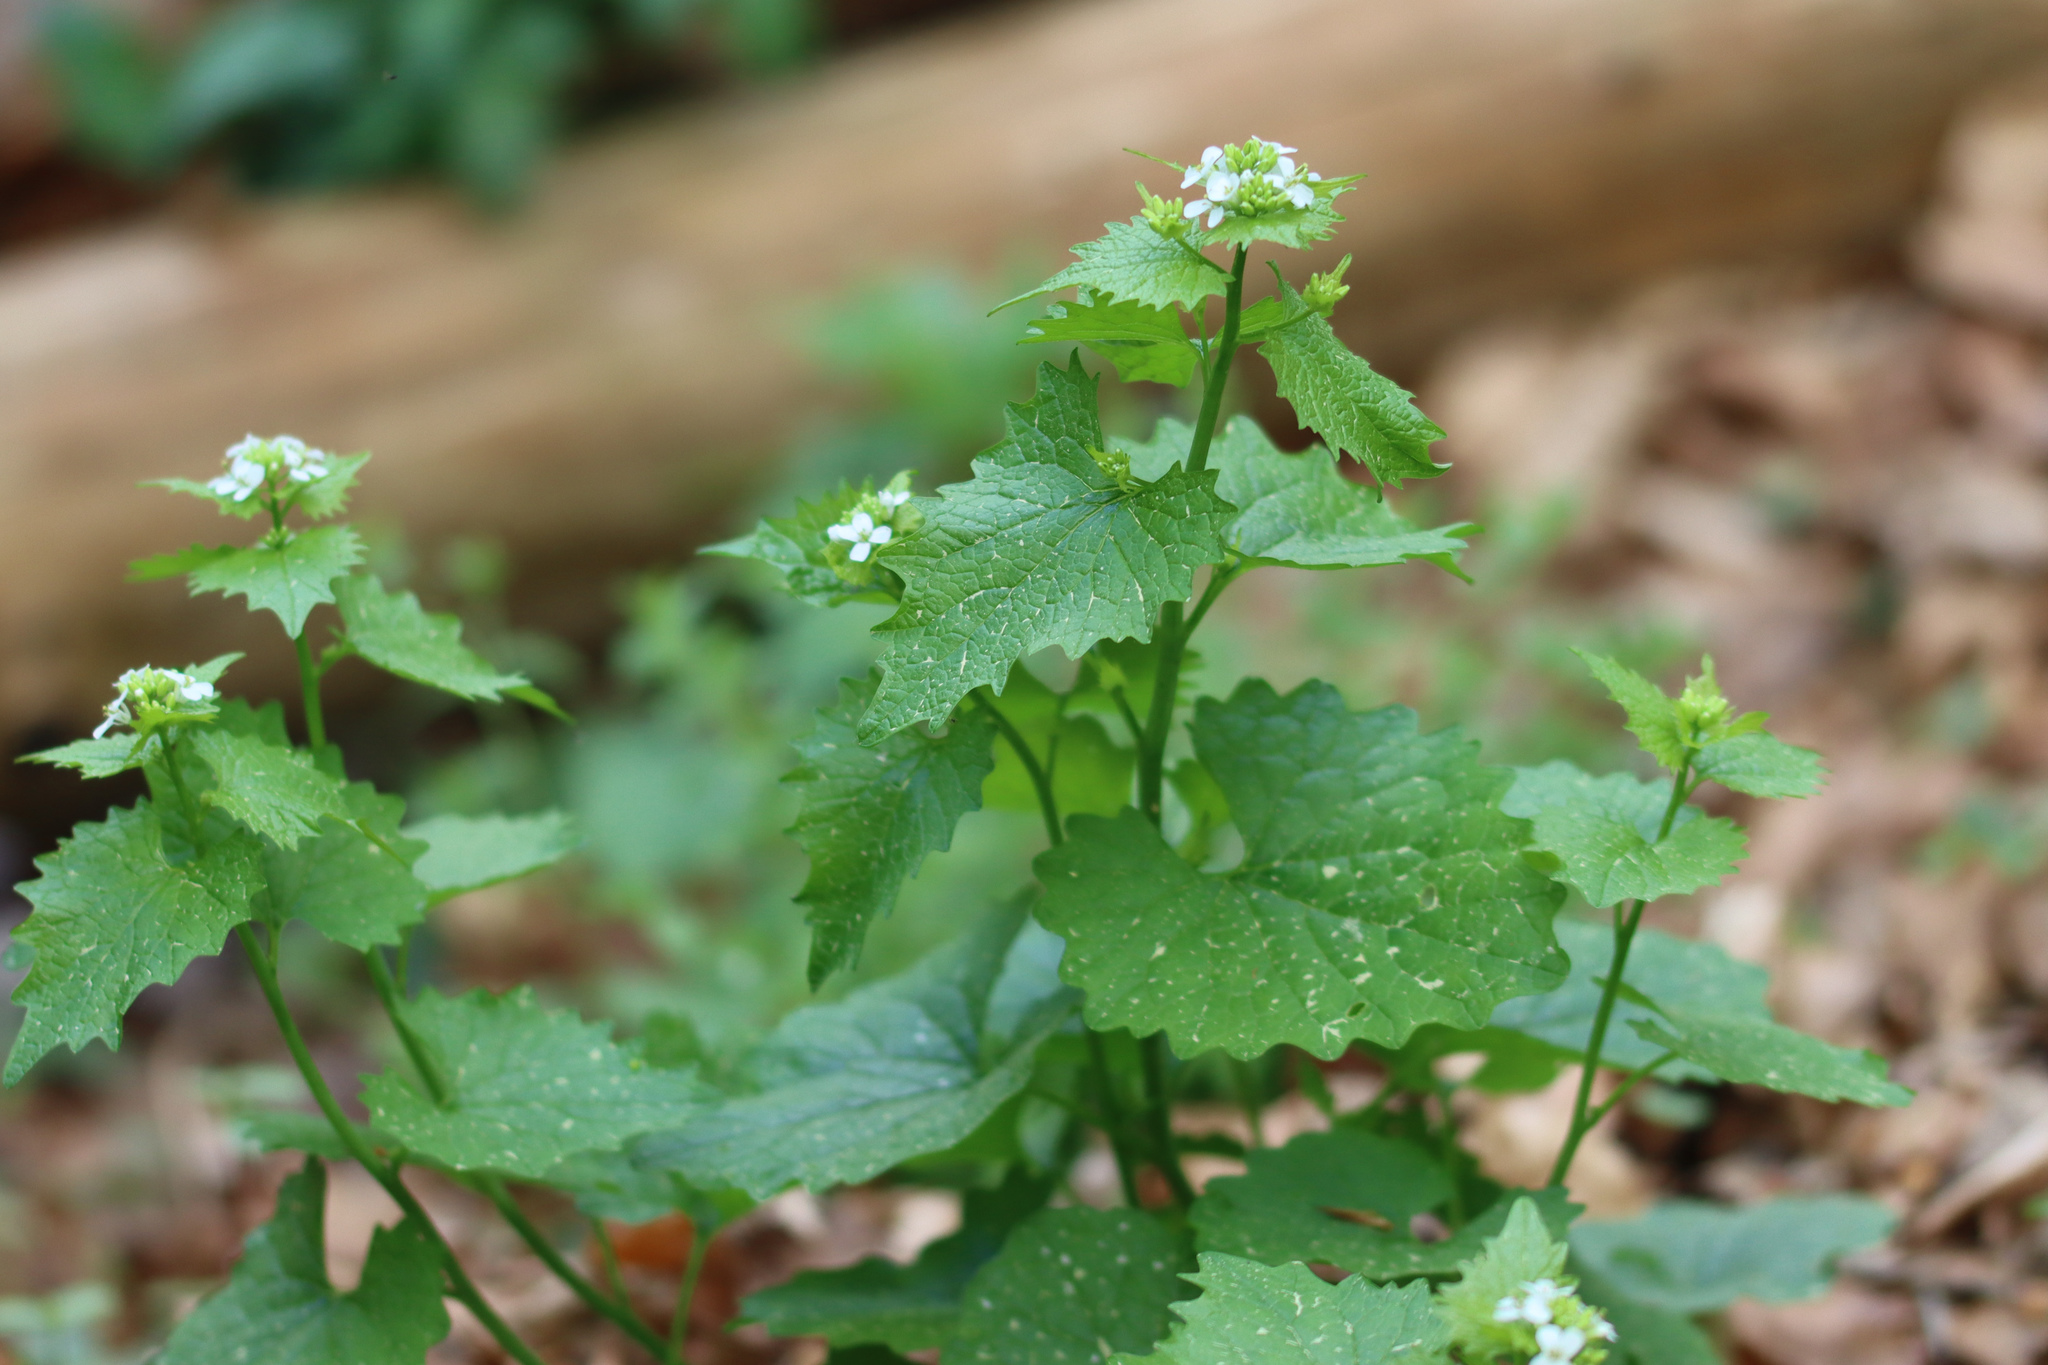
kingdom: Plantae
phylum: Tracheophyta
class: Magnoliopsida
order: Brassicales
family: Brassicaceae
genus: Alliaria
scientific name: Alliaria petiolata
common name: Garlic mustard
